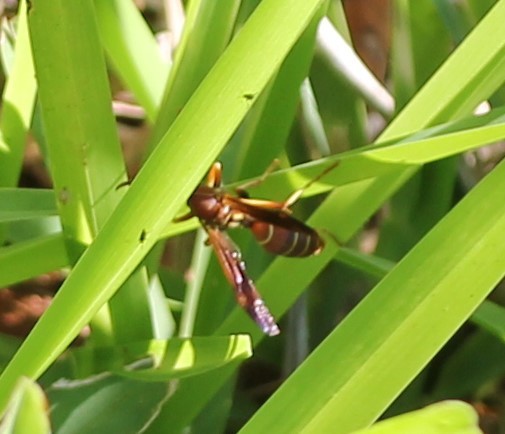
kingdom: Animalia
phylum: Arthropoda
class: Insecta
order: Hymenoptera
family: Eumenidae
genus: Polistes
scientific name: Polistes dorsalis
